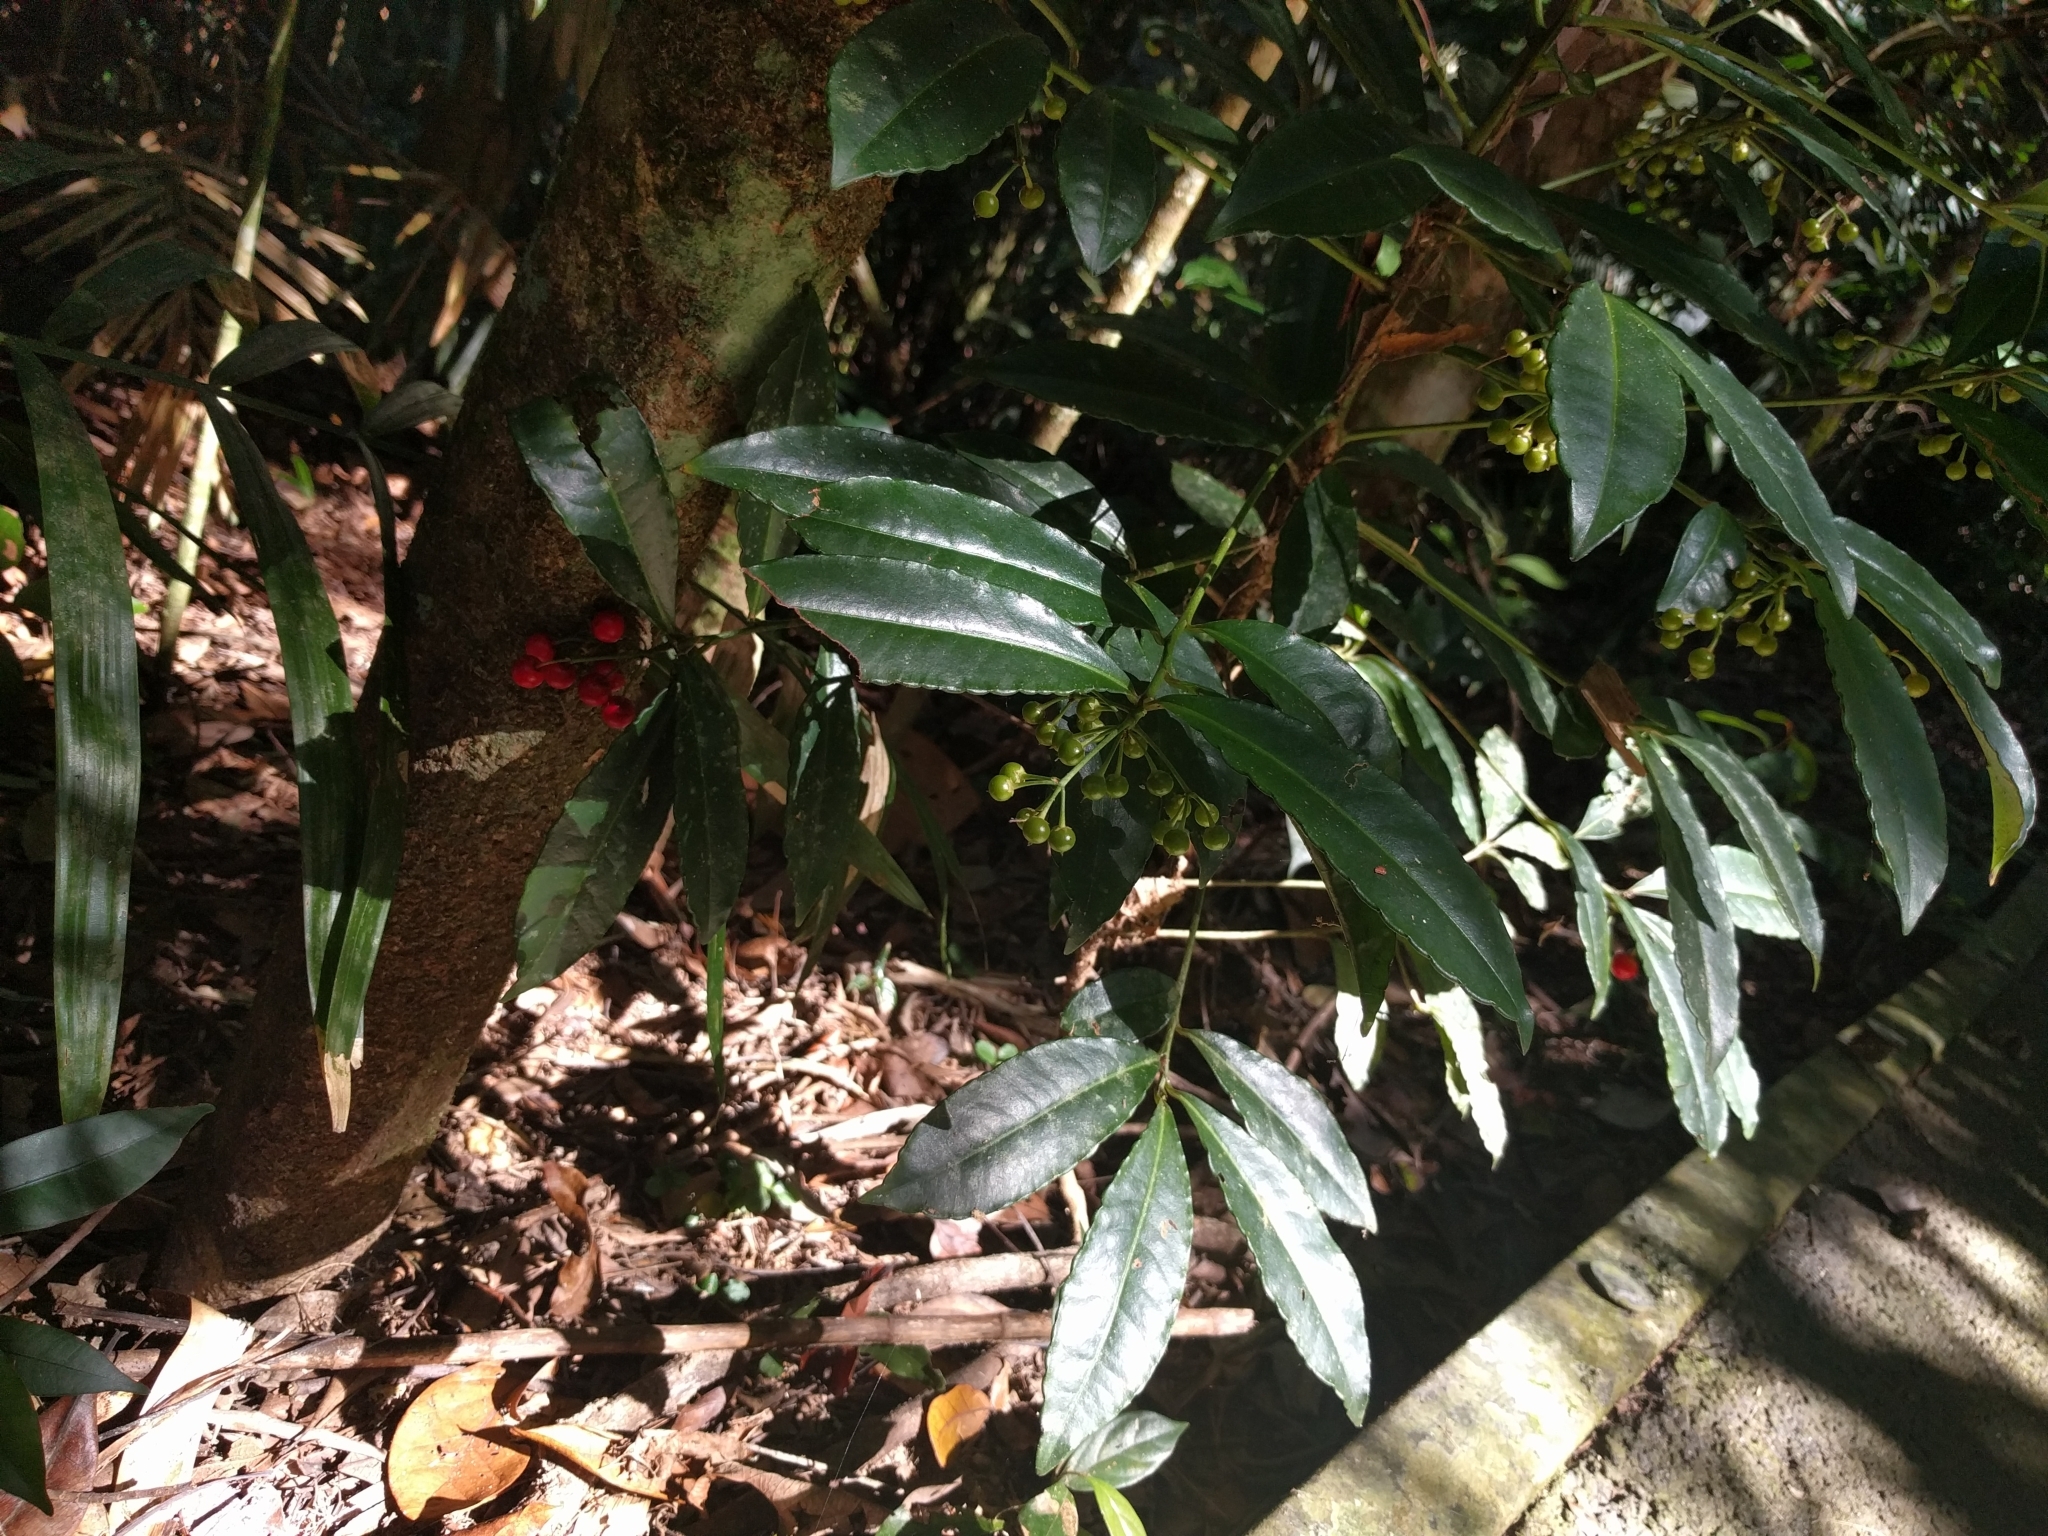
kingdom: Plantae
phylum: Tracheophyta
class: Magnoliopsida
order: Ericales
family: Primulaceae
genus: Ardisia
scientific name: Ardisia crenata
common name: Hen's eyes
